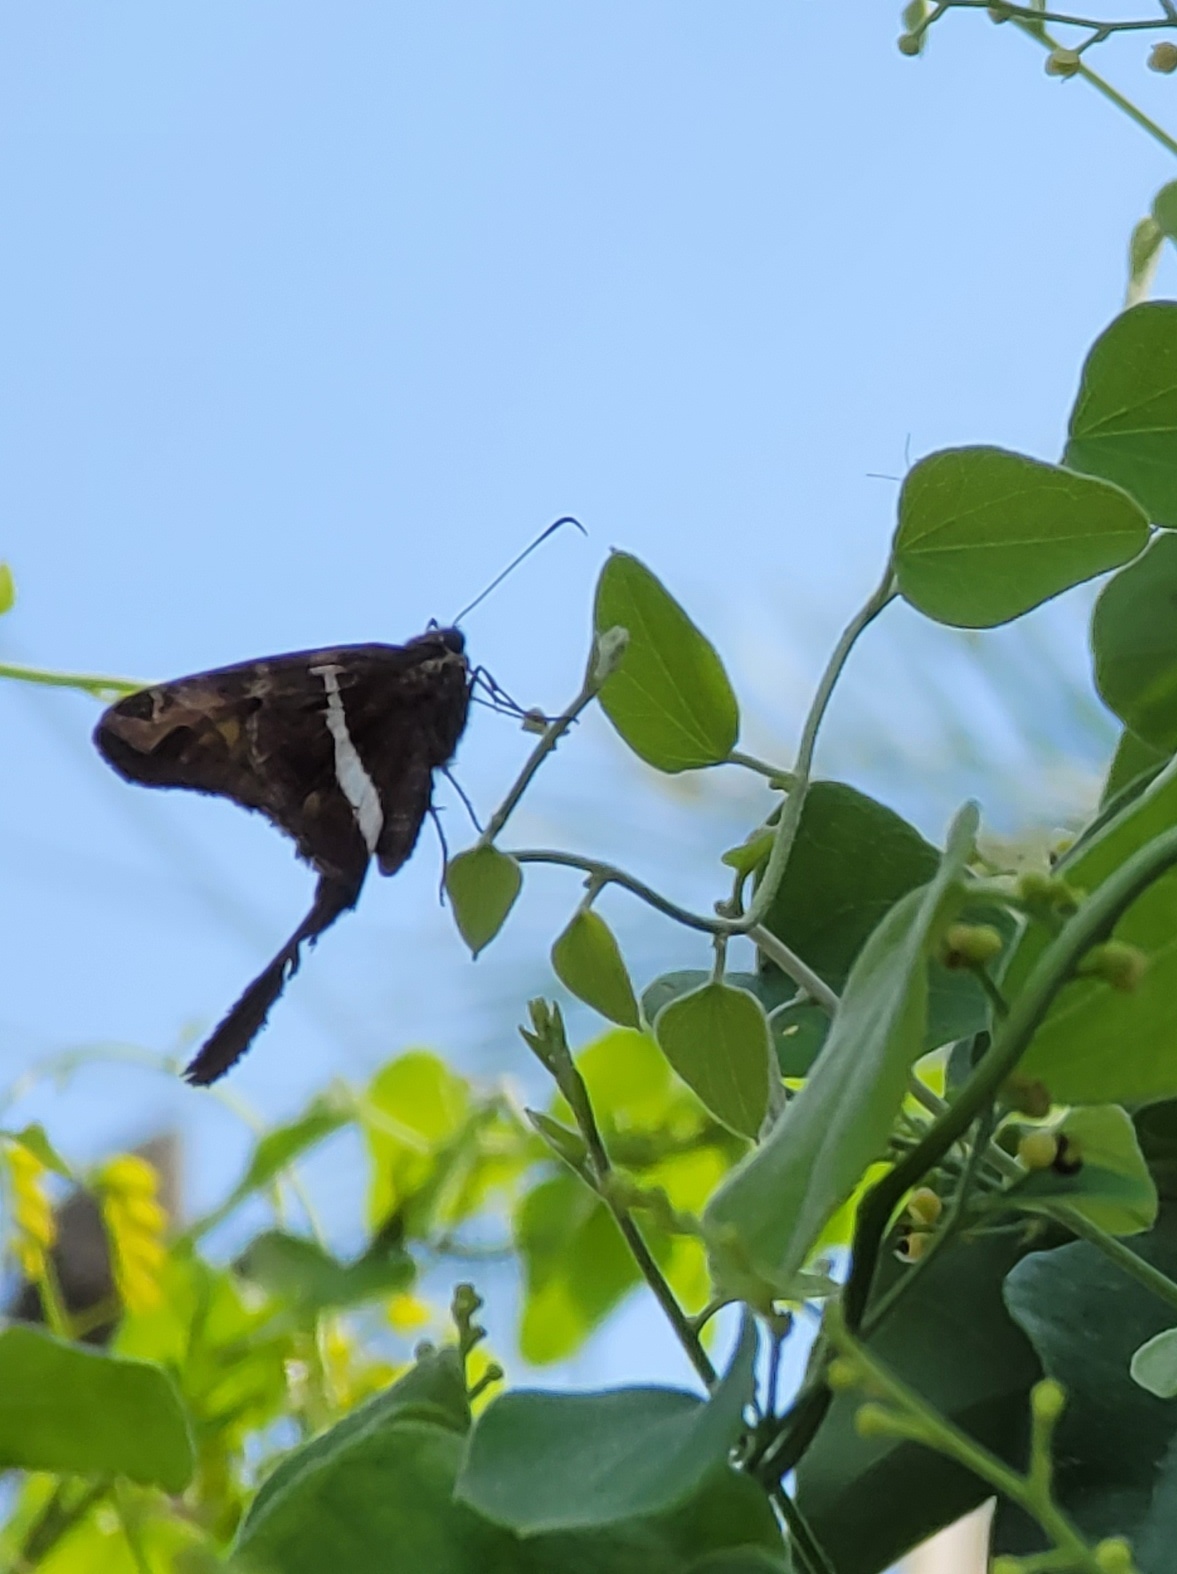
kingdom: Animalia
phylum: Arthropoda
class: Insecta
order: Lepidoptera
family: Hesperiidae
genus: Chioides
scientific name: Chioides catillus
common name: Silverbanded skipper
